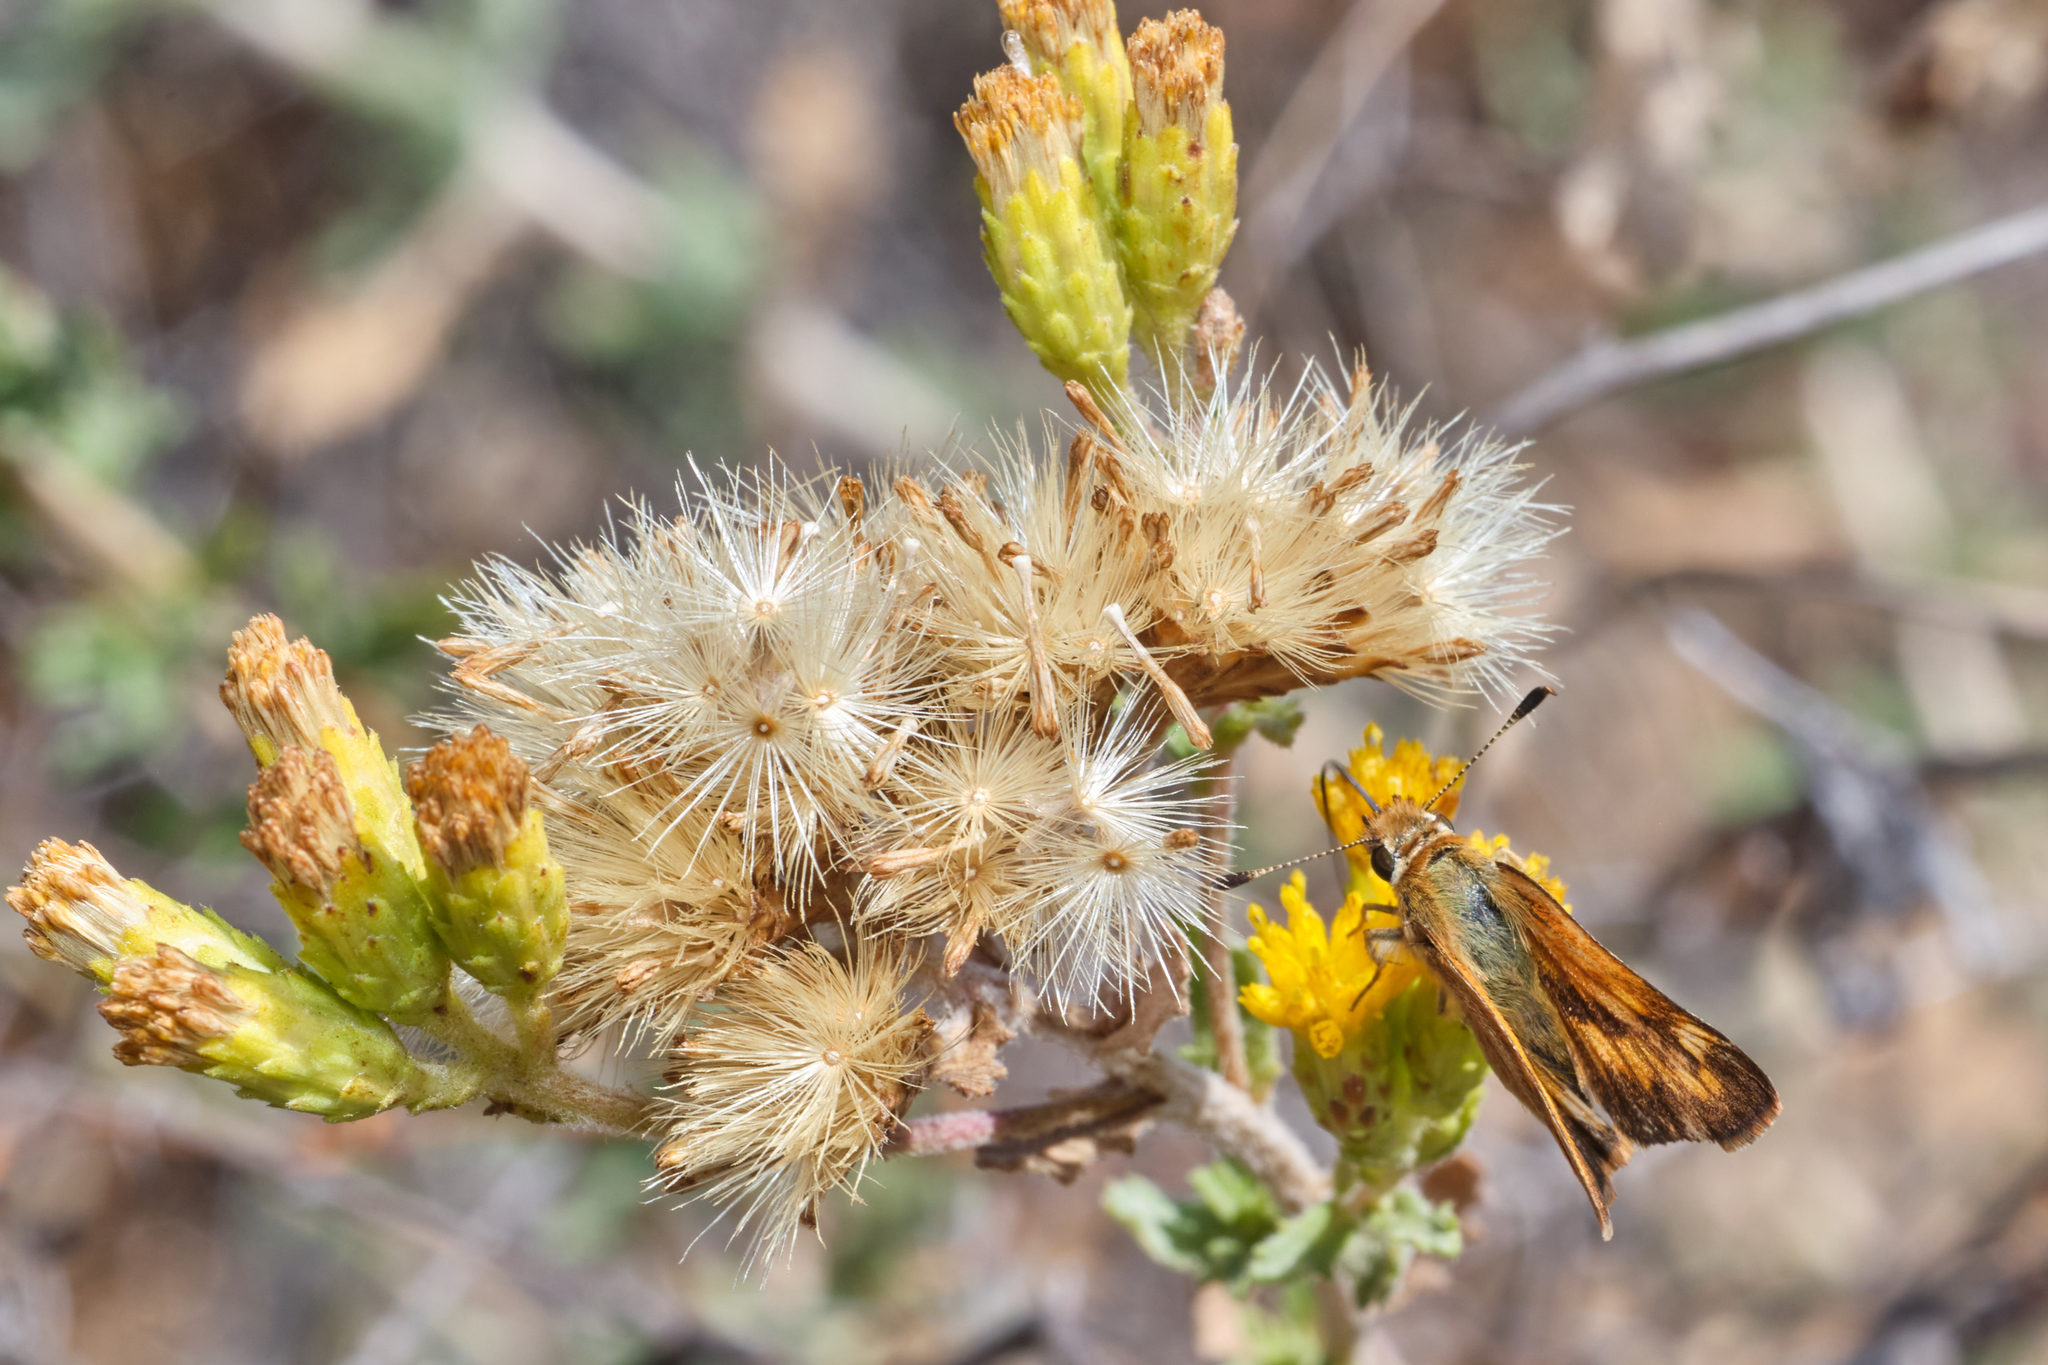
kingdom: Animalia
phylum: Arthropoda
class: Insecta
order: Lepidoptera
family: Hesperiidae
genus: Ochlodes
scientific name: Ochlodes sylvanoides
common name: Woodland skipper
